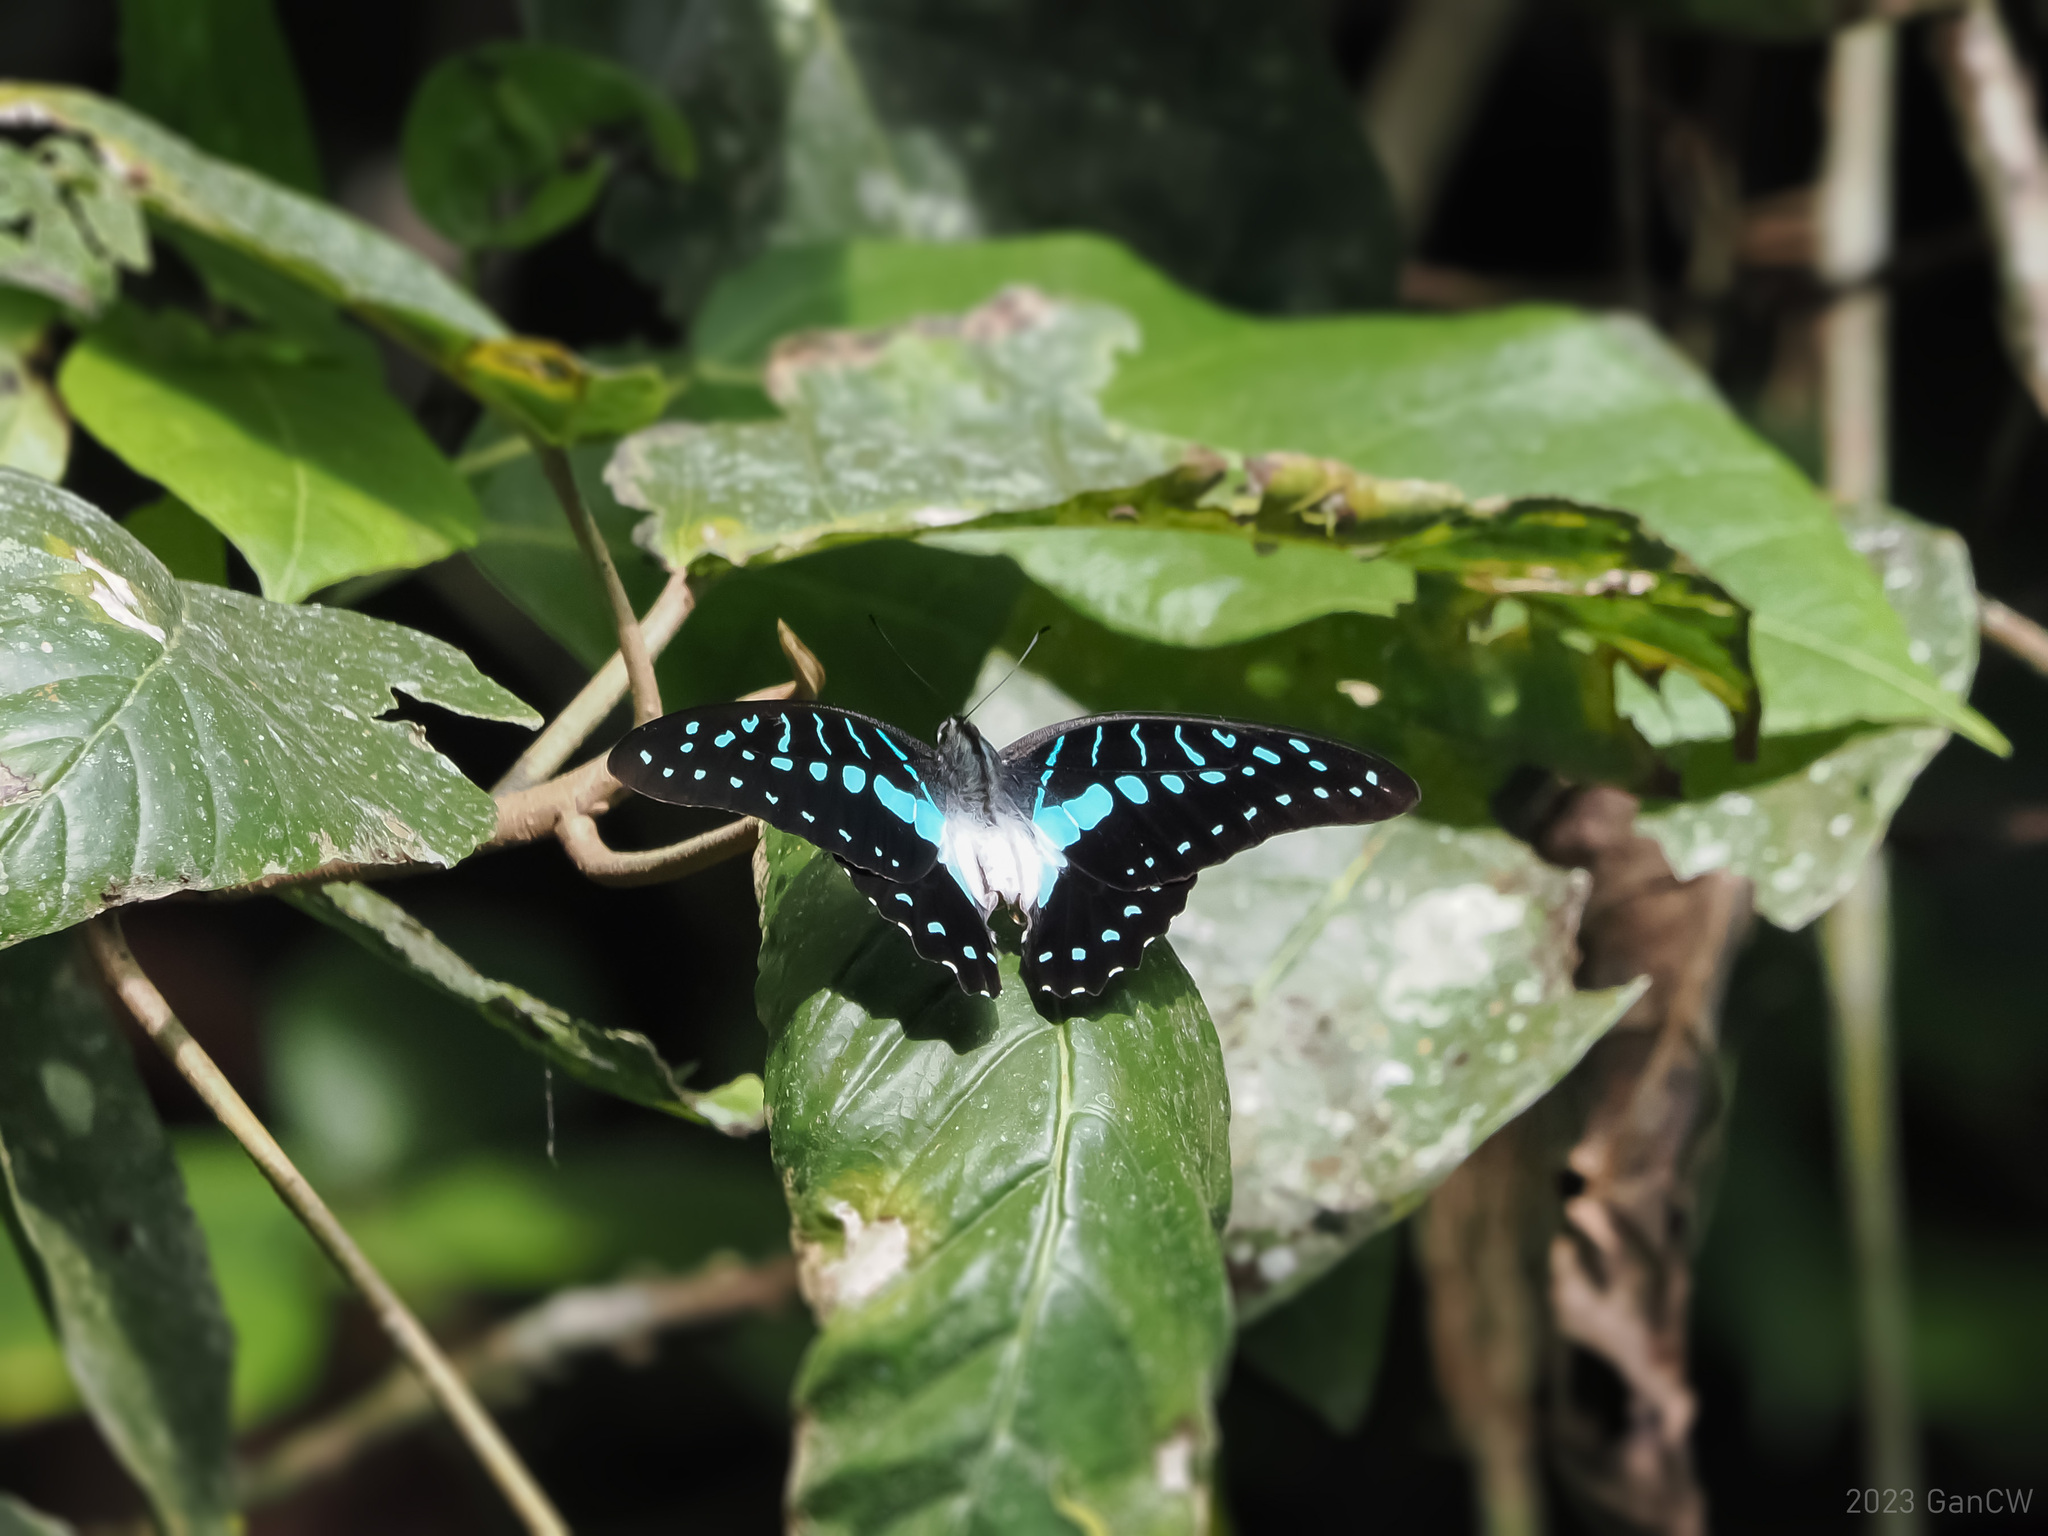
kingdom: Animalia
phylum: Arthropoda
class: Insecta
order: Lepidoptera
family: Papilionidae
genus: Graphium
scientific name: Graphium meyeri
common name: Meyer's triangle
